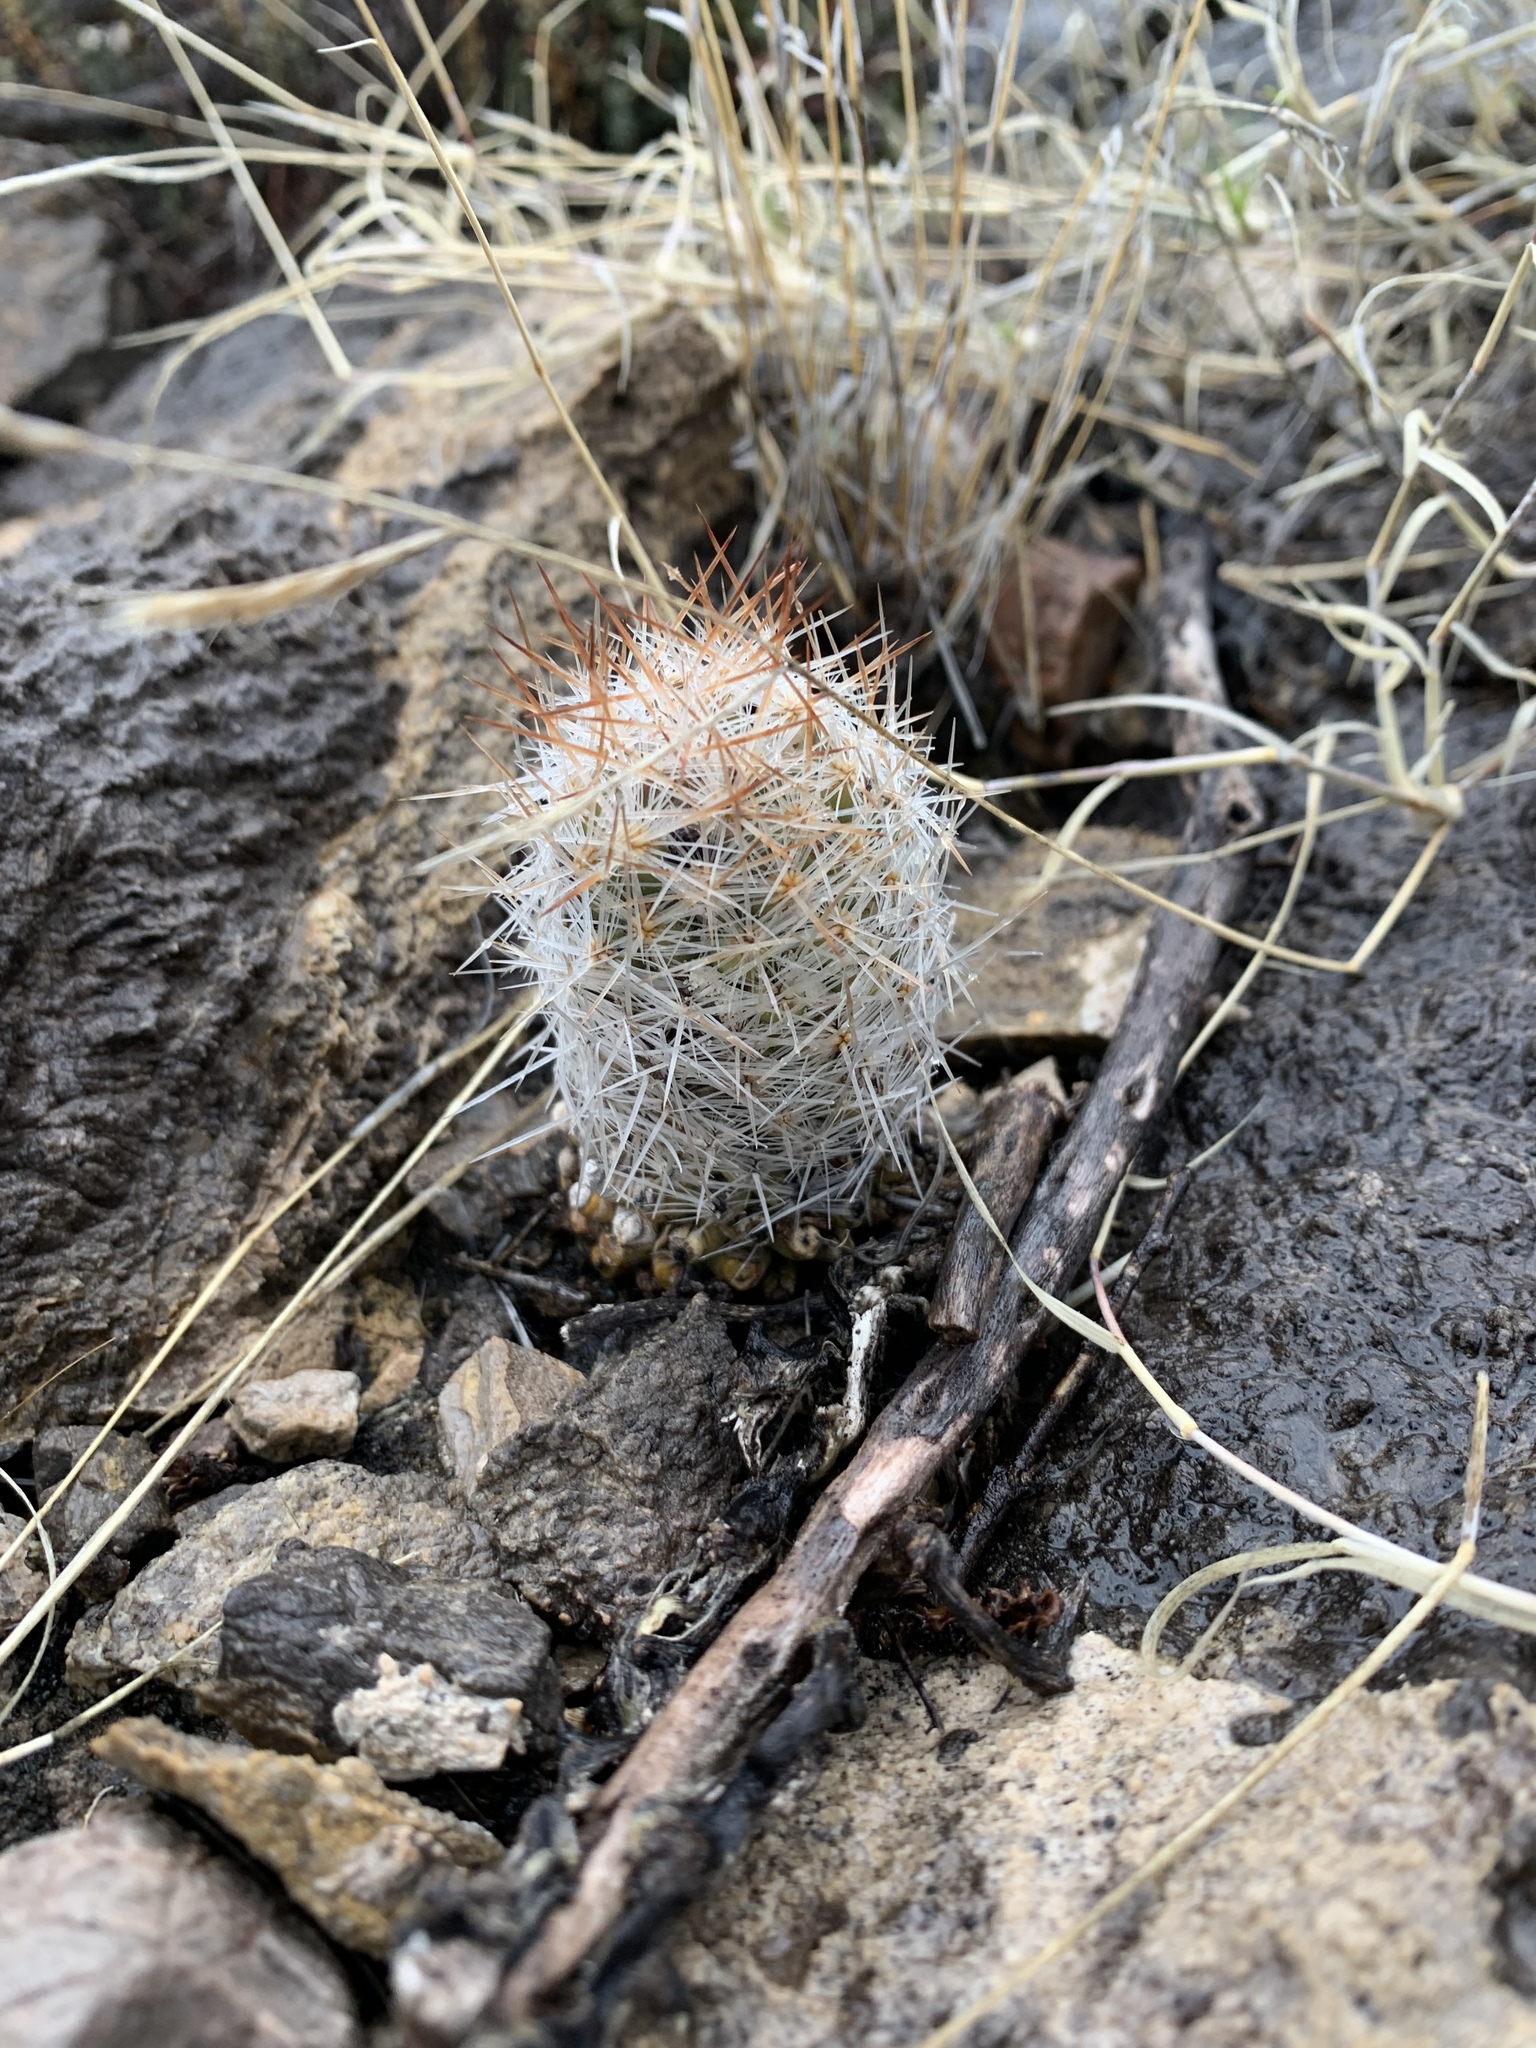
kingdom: Plantae
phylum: Tracheophyta
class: Magnoliopsida
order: Caryophyllales
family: Cactaceae
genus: Pelecyphora
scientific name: Pelecyphora tuberculosa
